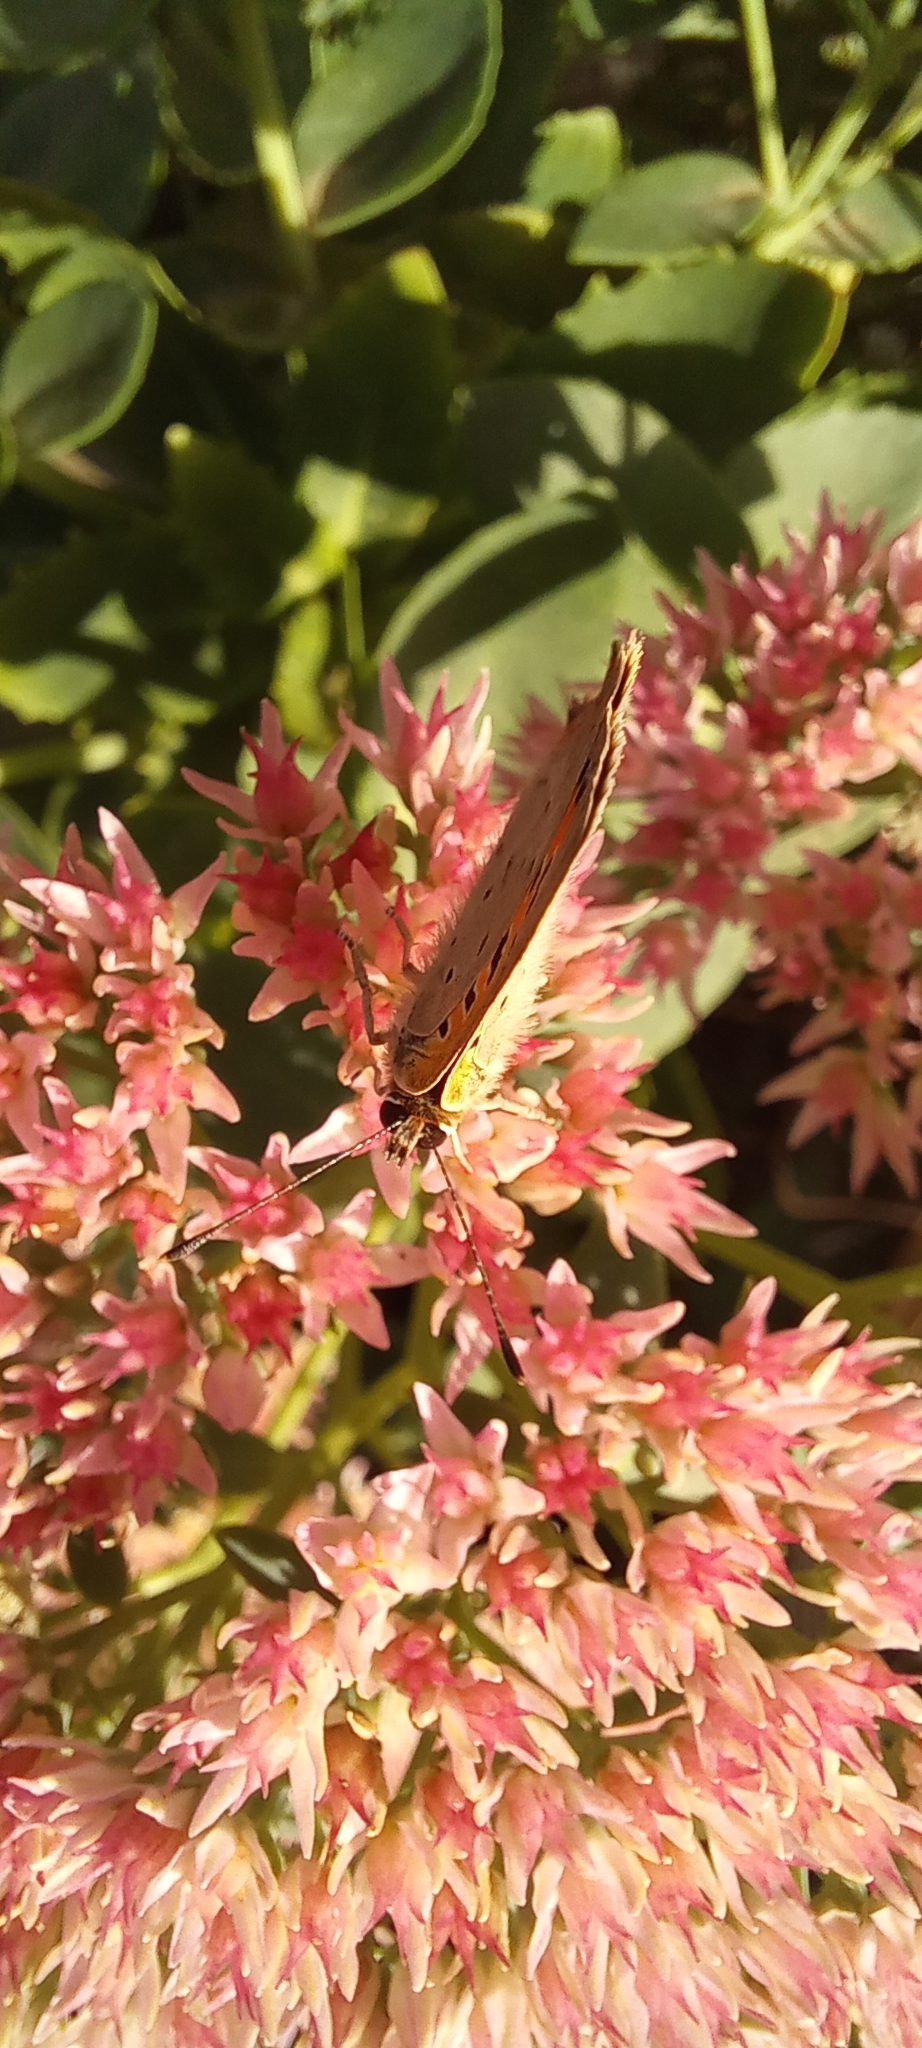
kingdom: Animalia
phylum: Arthropoda
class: Insecta
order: Lepidoptera
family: Lycaenidae
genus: Lycaena
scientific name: Lycaena phlaeas
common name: Small copper
